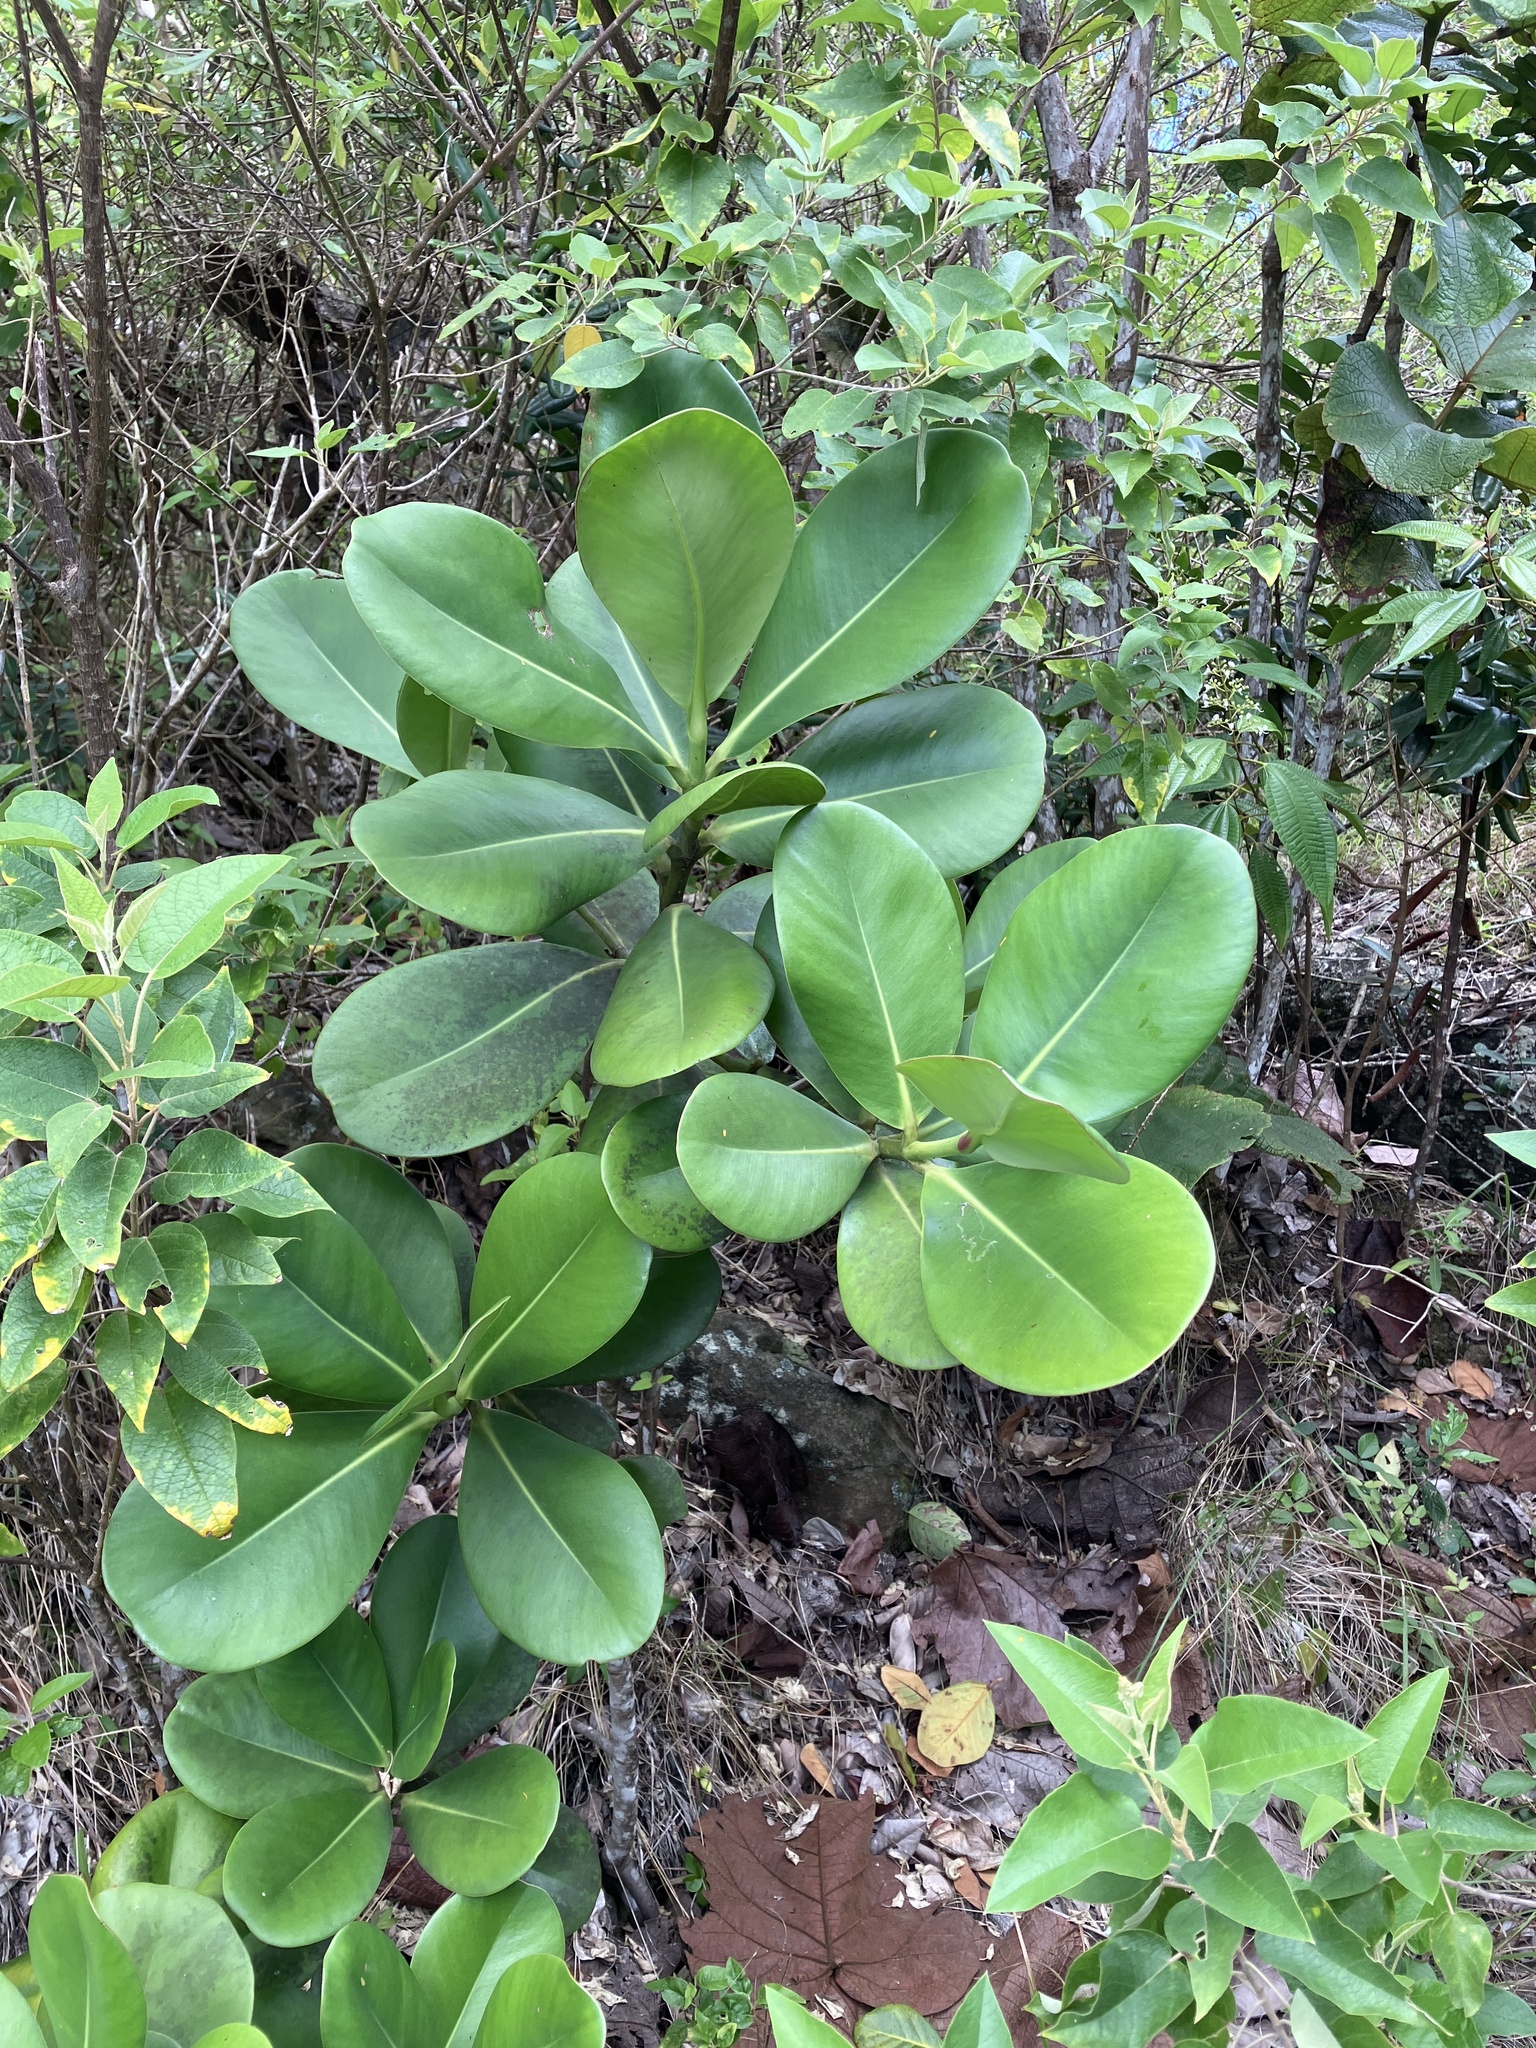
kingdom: Plantae
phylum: Tracheophyta
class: Magnoliopsida
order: Malpighiales
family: Clusiaceae
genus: Clusia
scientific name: Clusia rosea
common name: Scotch attorney
